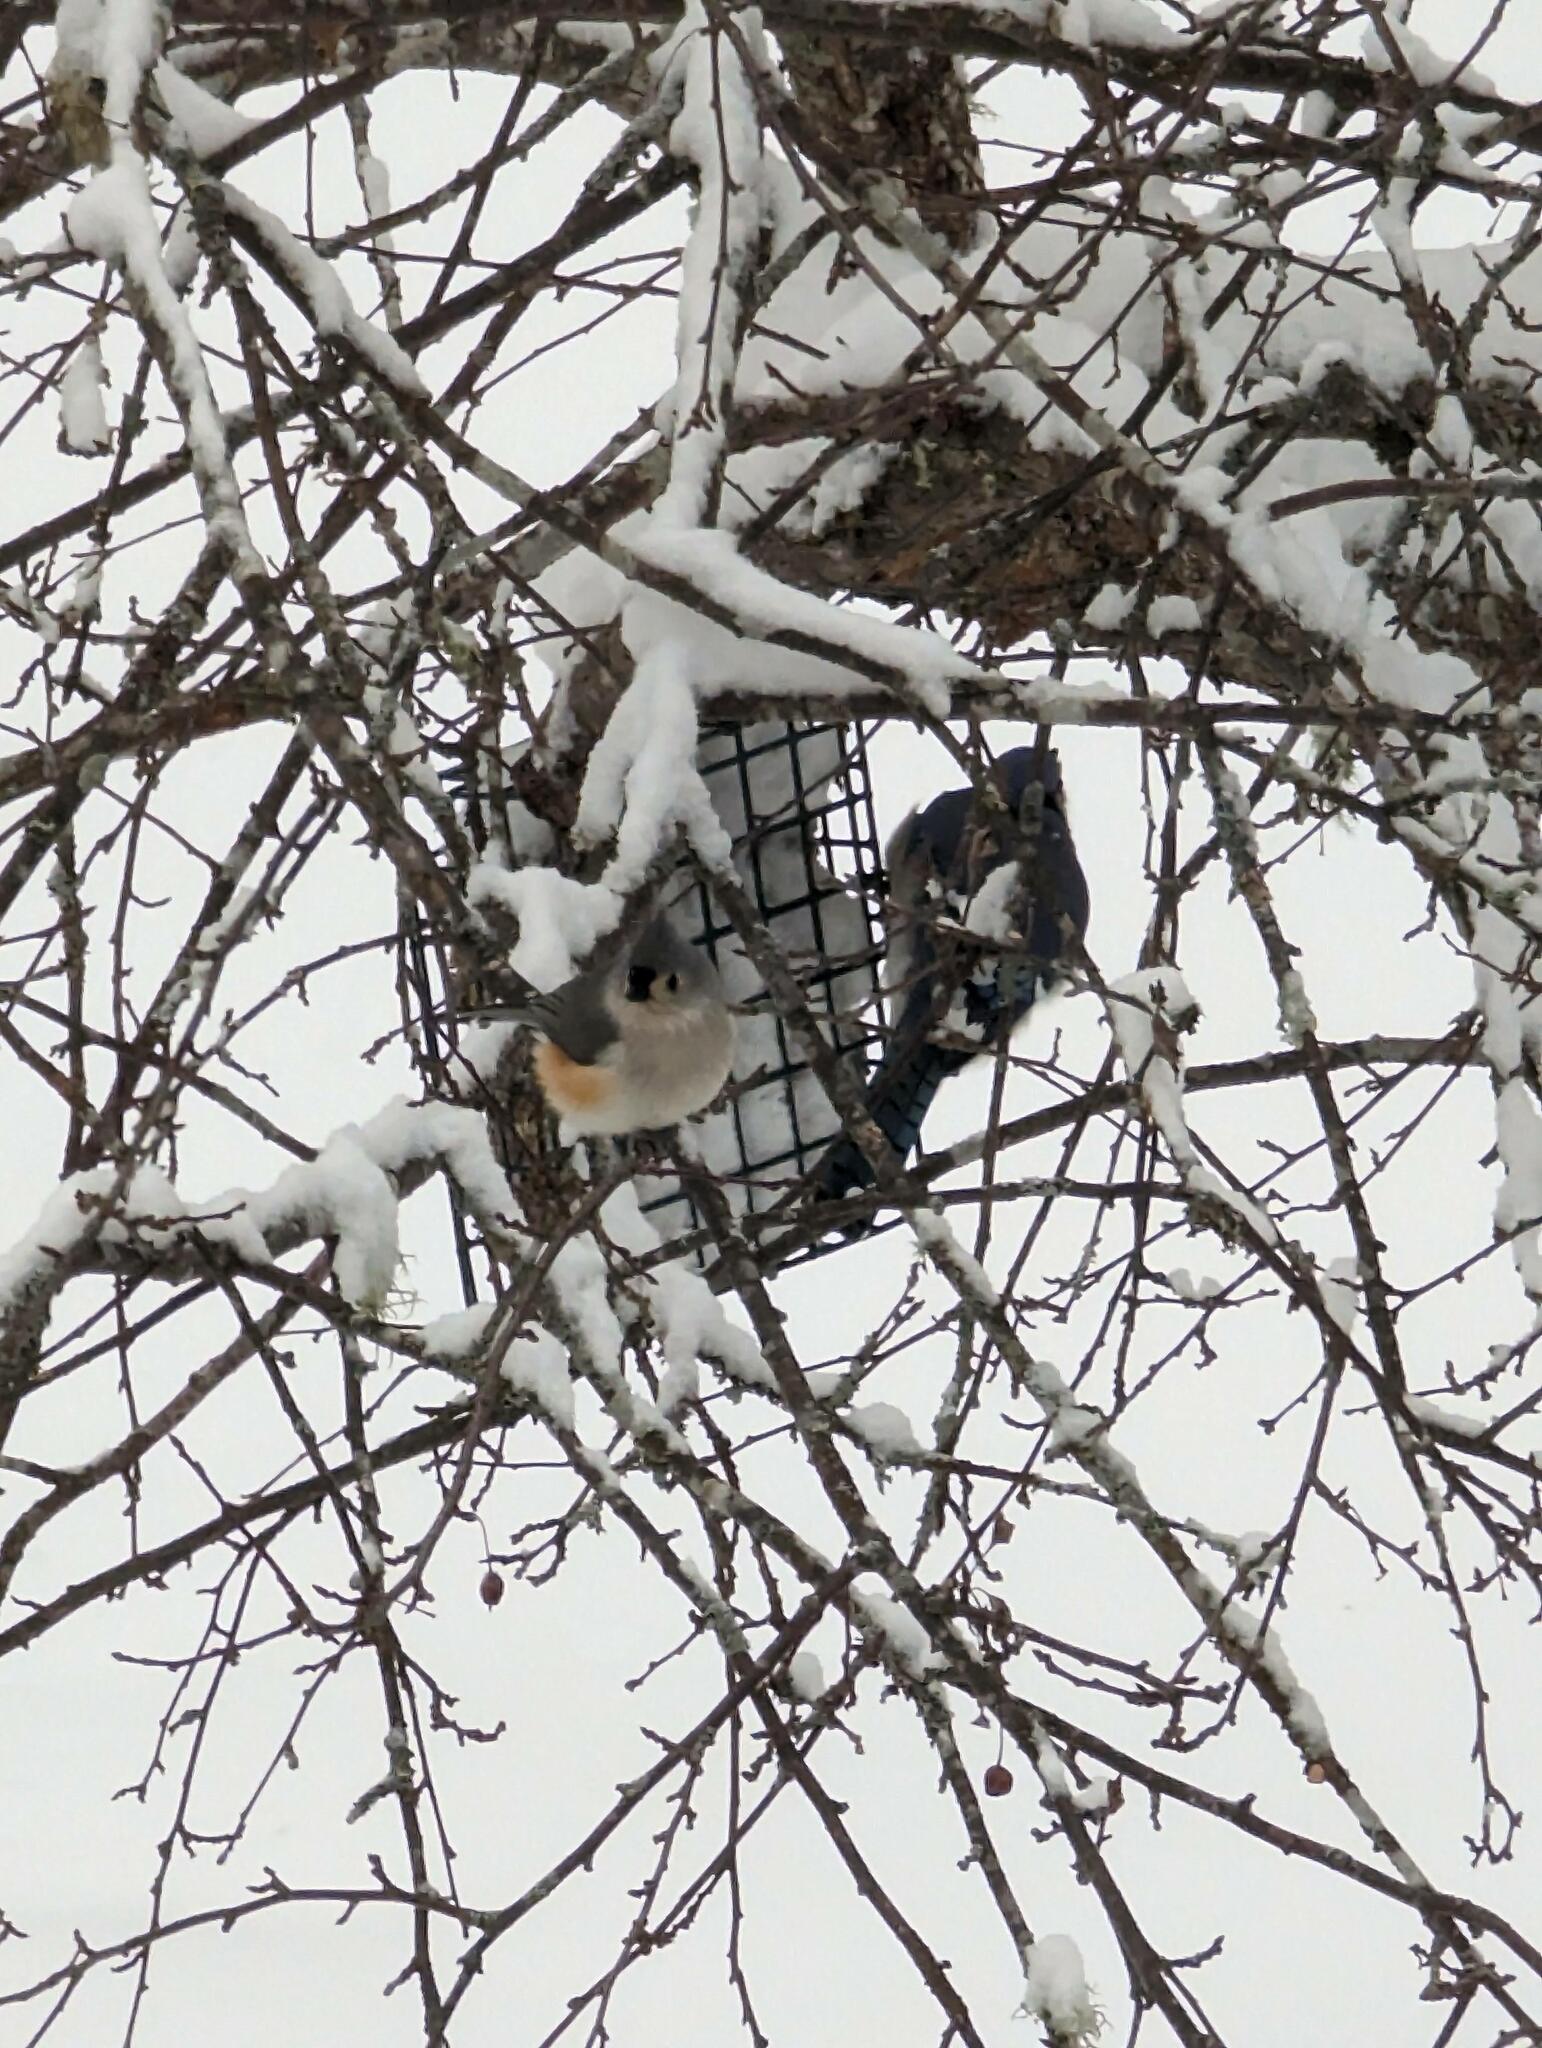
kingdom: Animalia
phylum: Chordata
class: Aves
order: Passeriformes
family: Paridae
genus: Baeolophus
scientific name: Baeolophus bicolor
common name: Tufted titmouse
